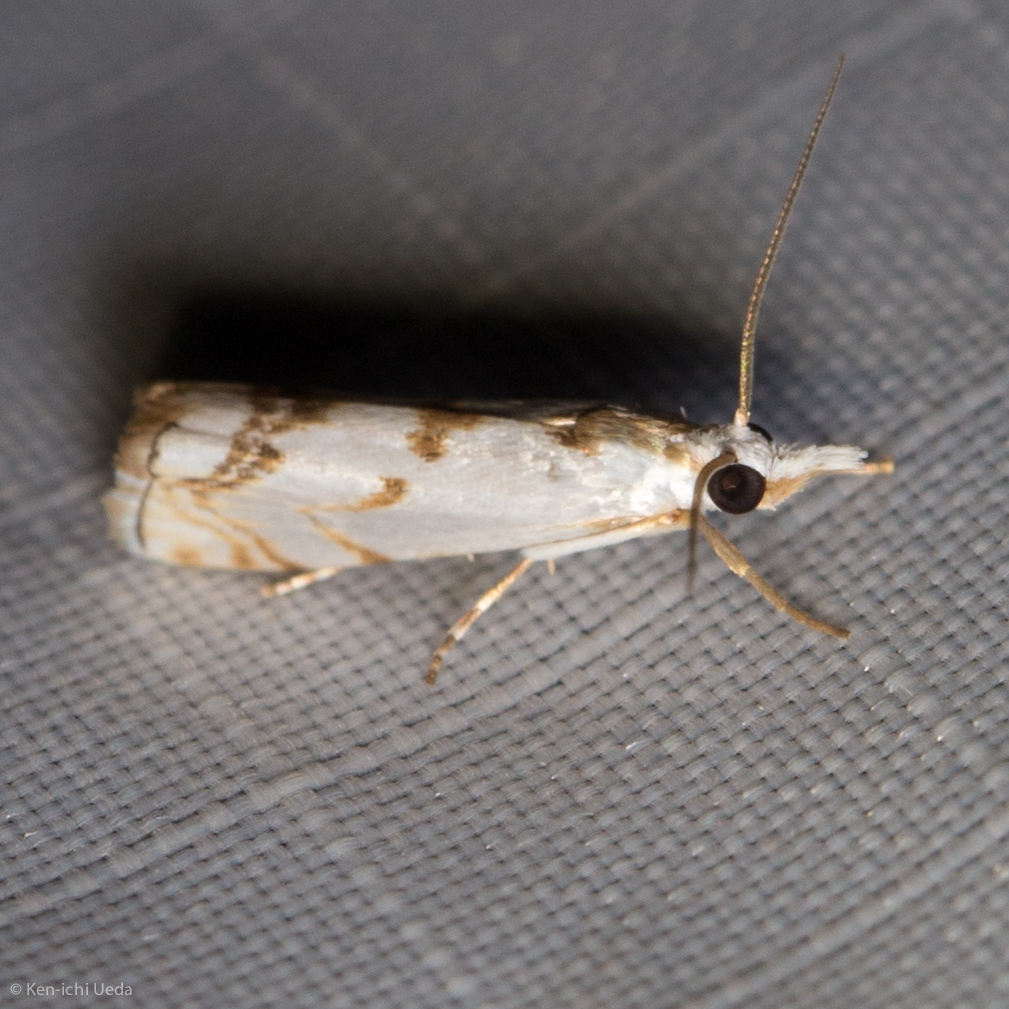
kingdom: Animalia
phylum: Arthropoda
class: Insecta
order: Lepidoptera
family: Crambidae
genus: Microcrambus
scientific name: Microcrambus copelandi
